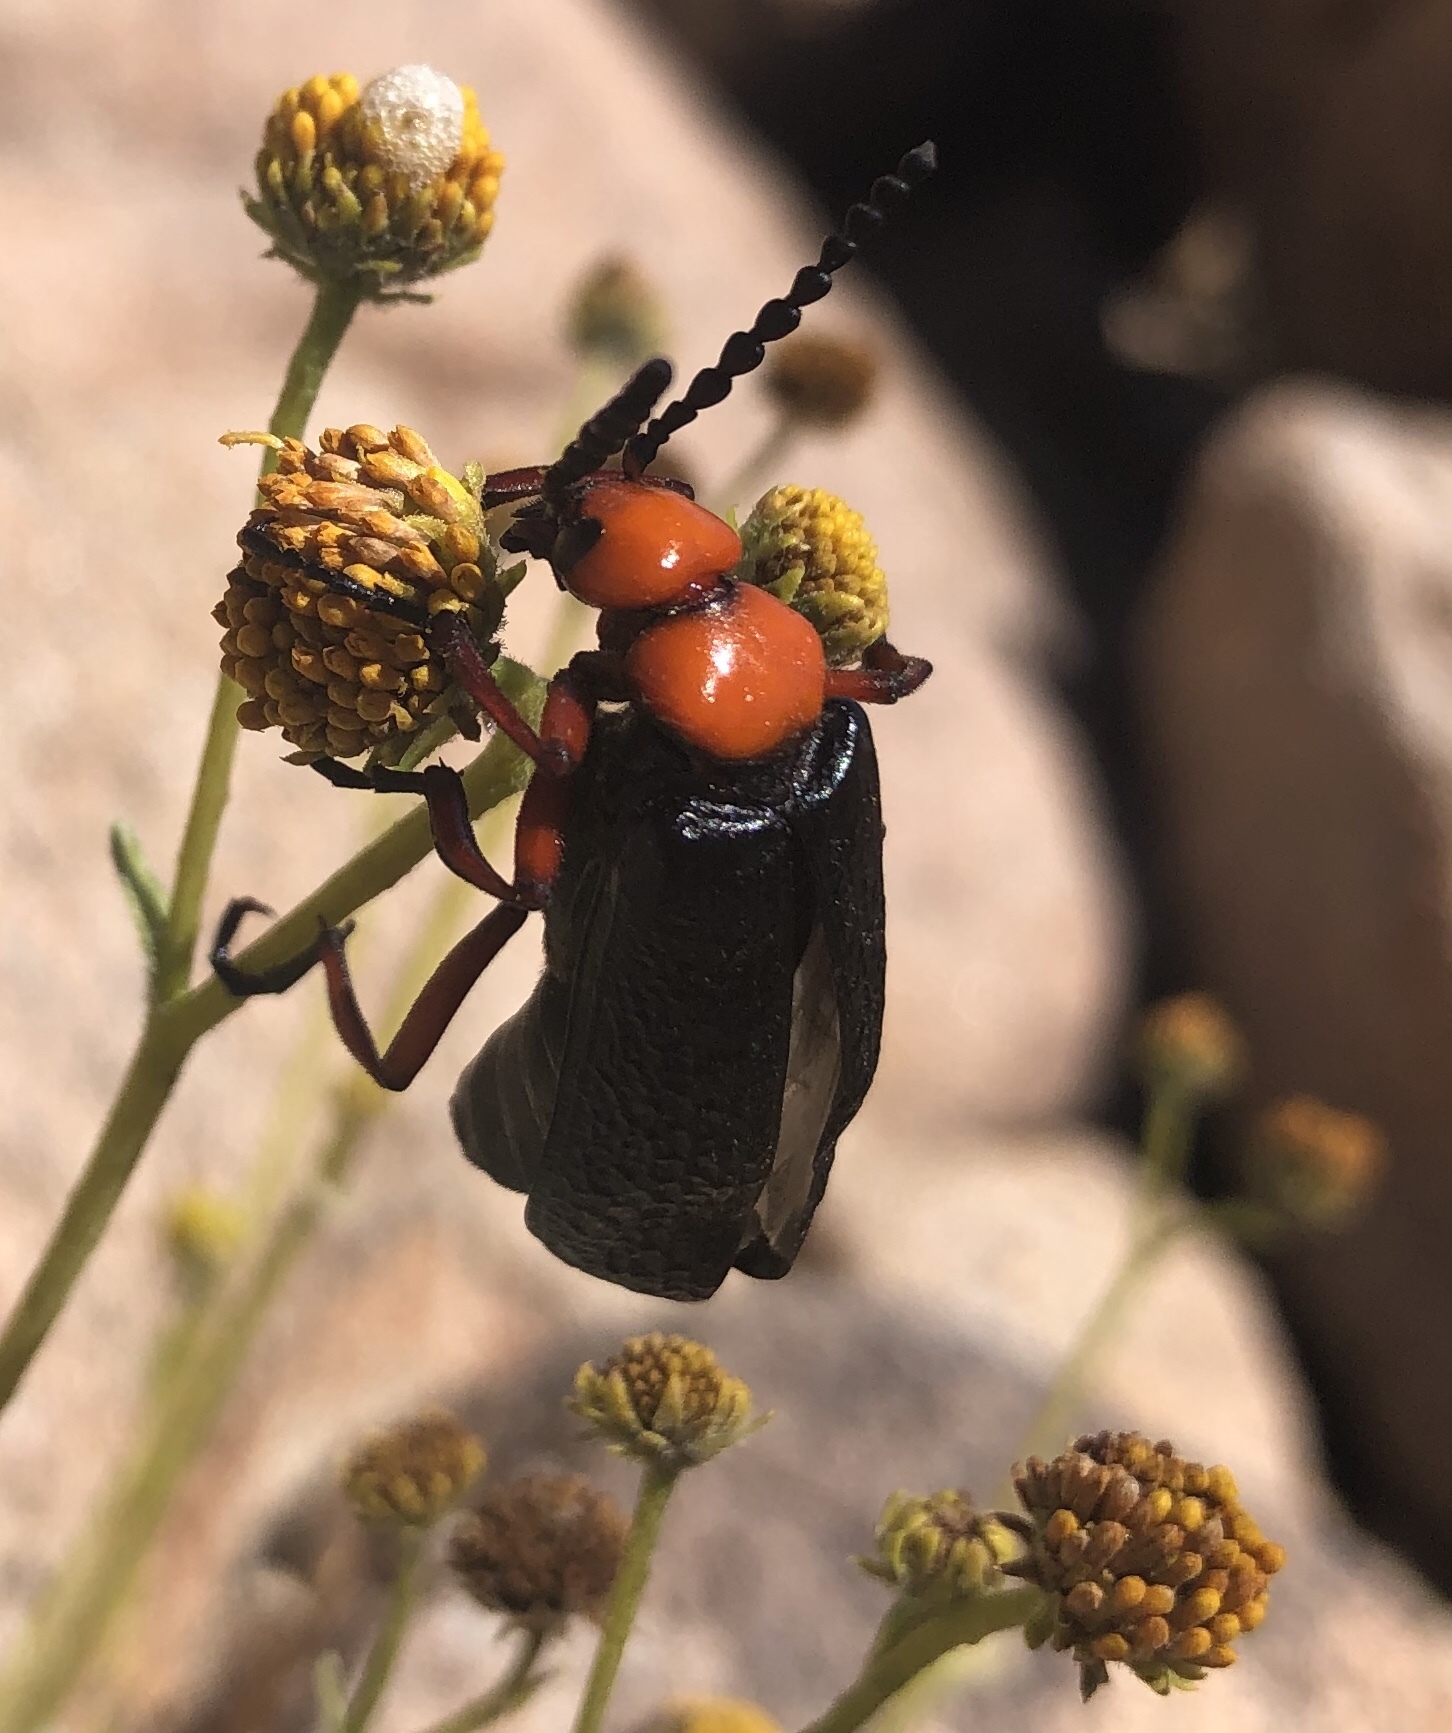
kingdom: Animalia
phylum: Arthropoda
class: Insecta
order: Coleoptera
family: Meloidae
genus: Lytta
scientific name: Lytta magister
